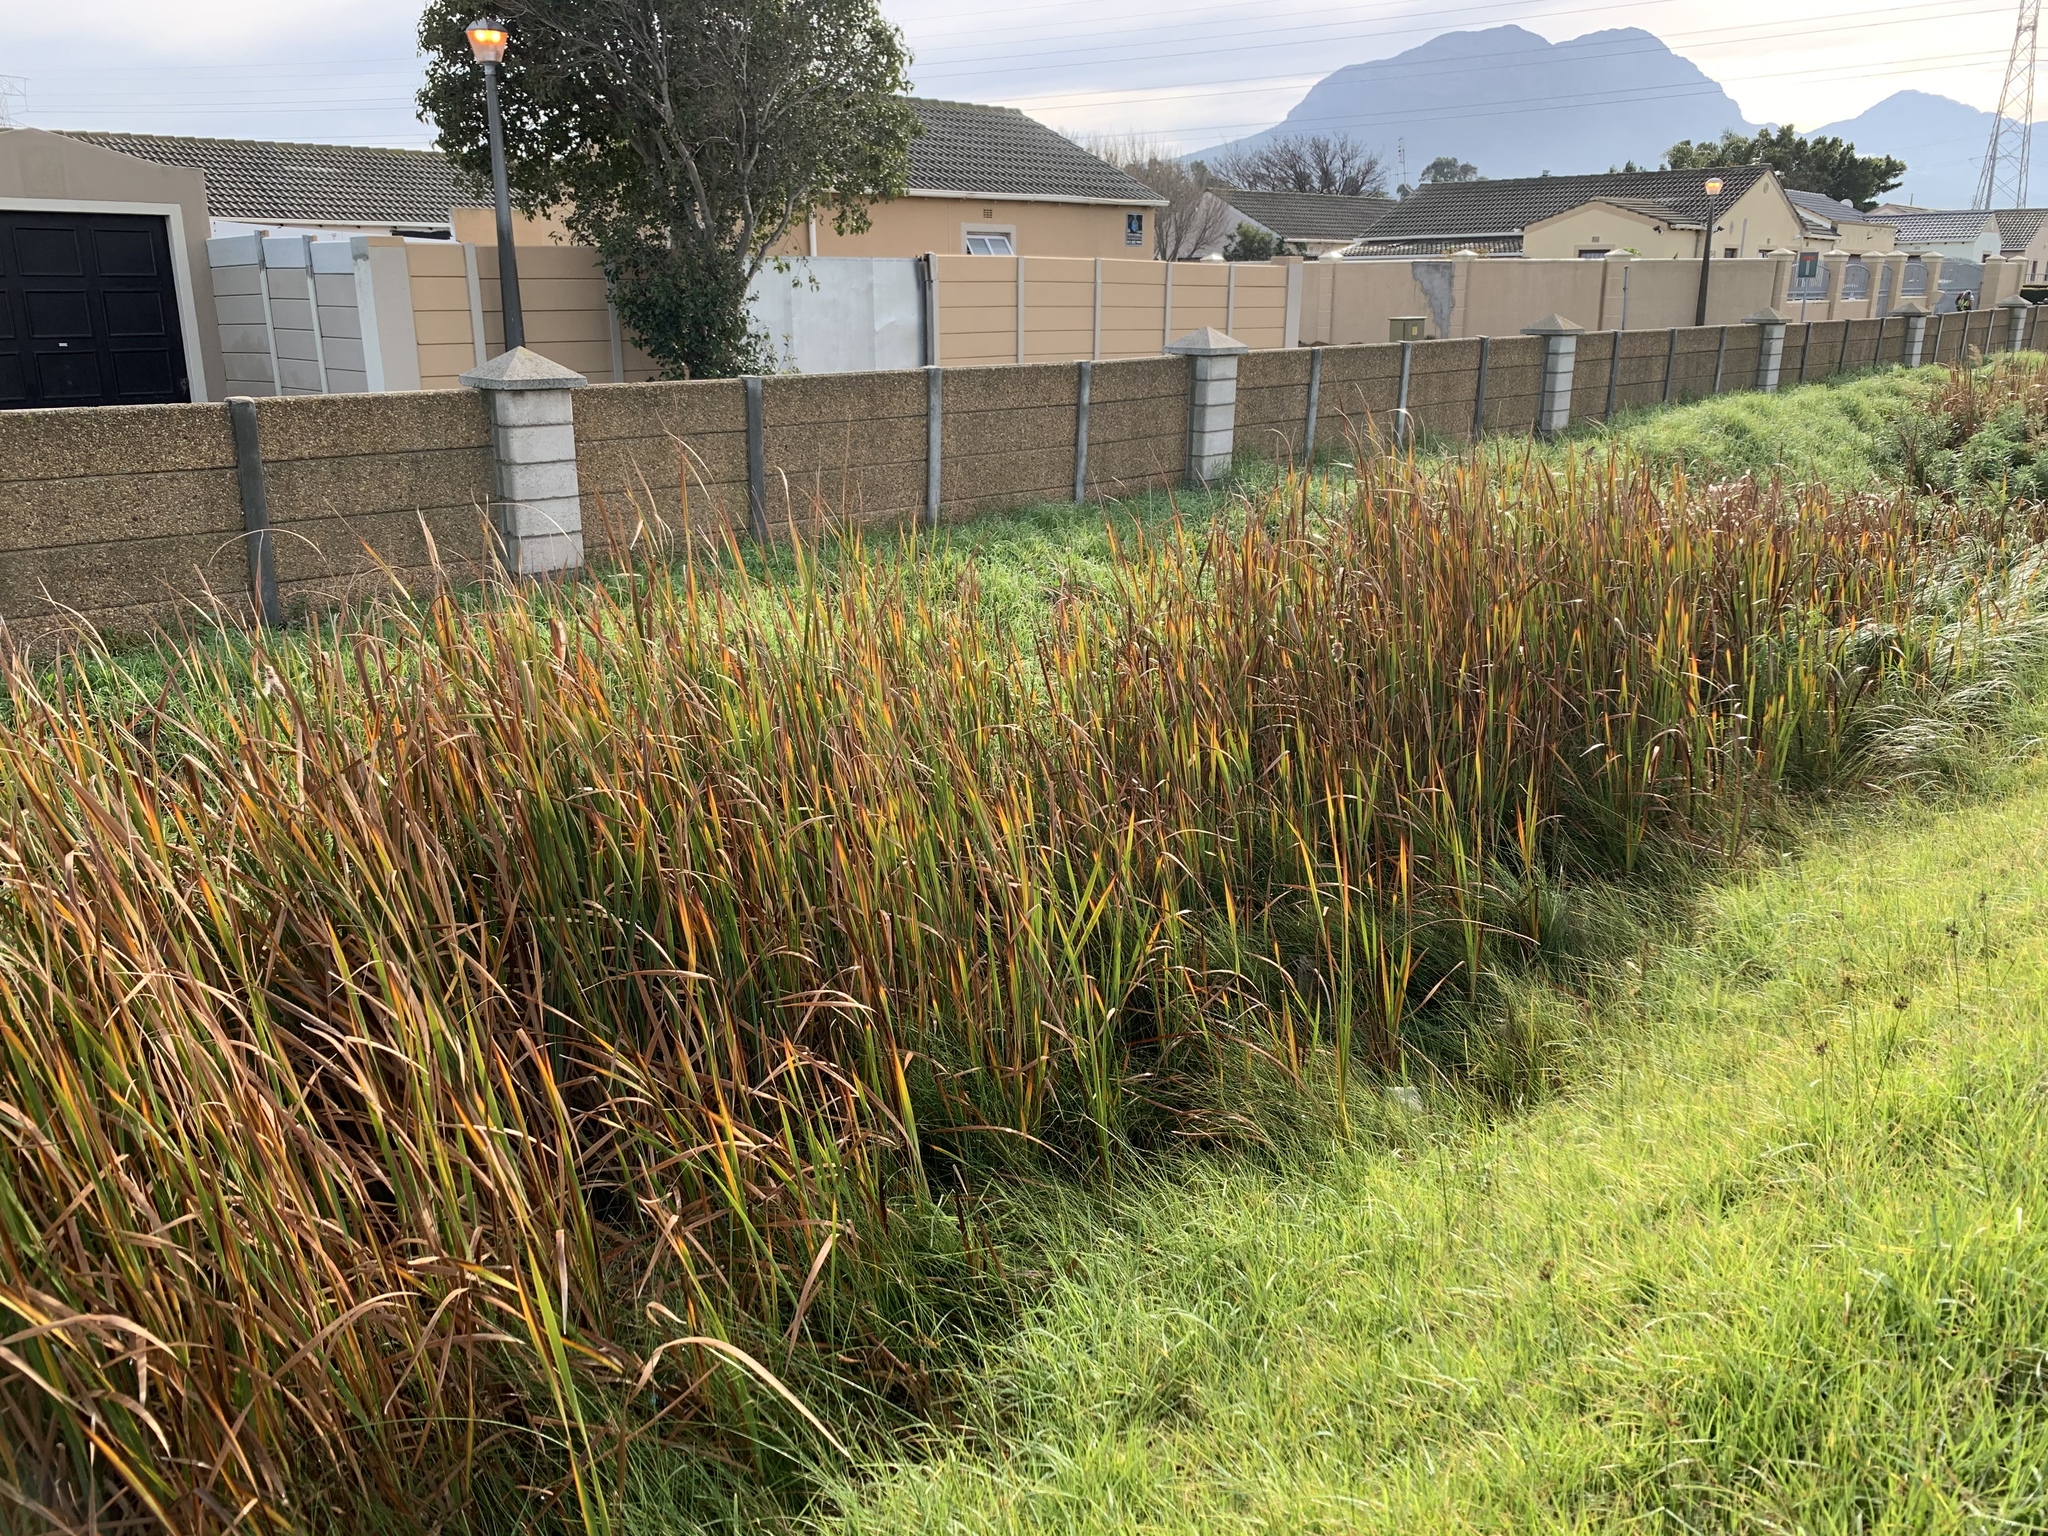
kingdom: Plantae
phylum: Tracheophyta
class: Liliopsida
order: Poales
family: Typhaceae
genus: Typha
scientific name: Typha capensis
